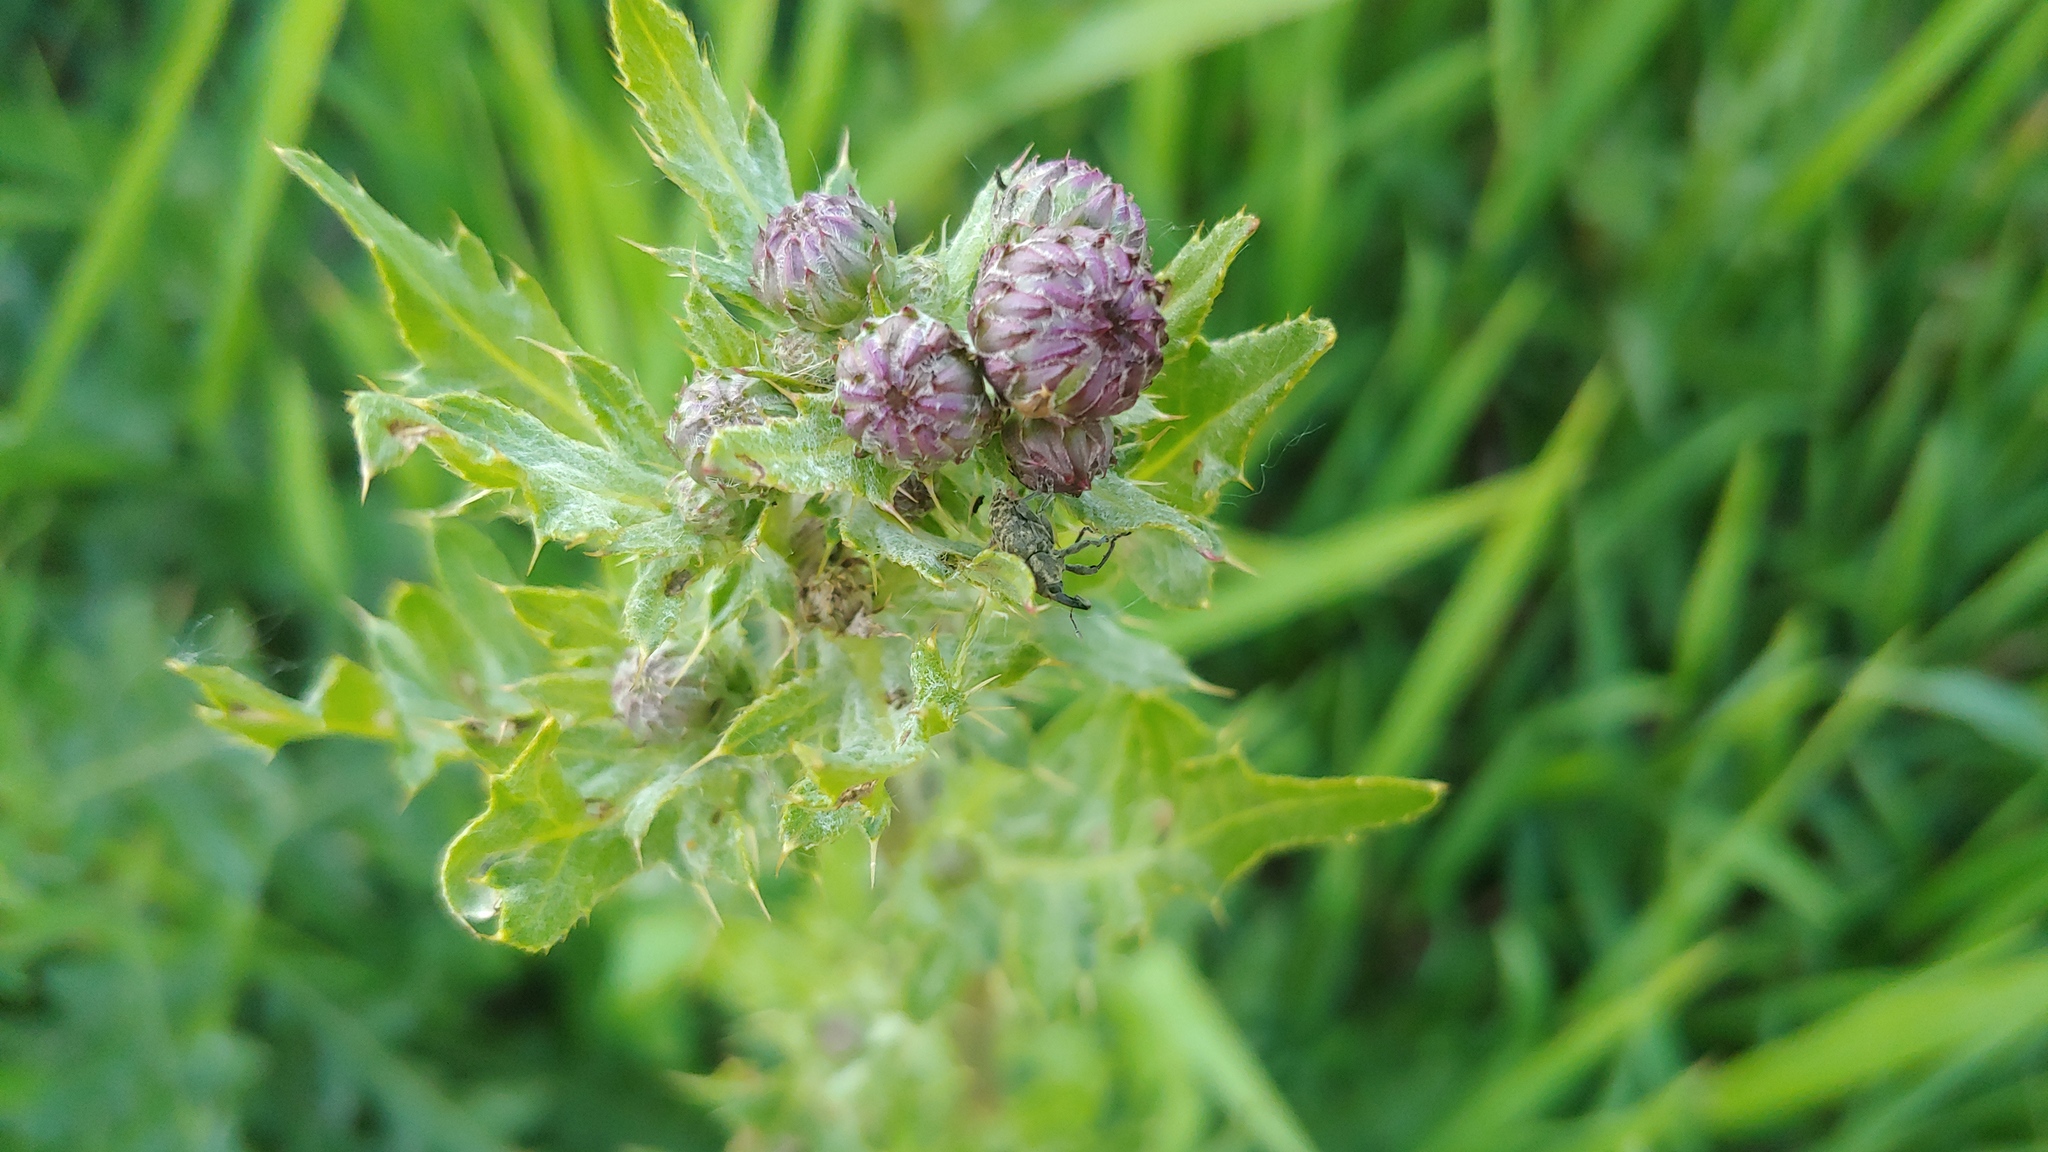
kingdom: Animalia
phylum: Arthropoda
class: Insecta
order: Coleoptera
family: Curculionidae
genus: Larinus
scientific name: Larinus carlinae
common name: Weevil
